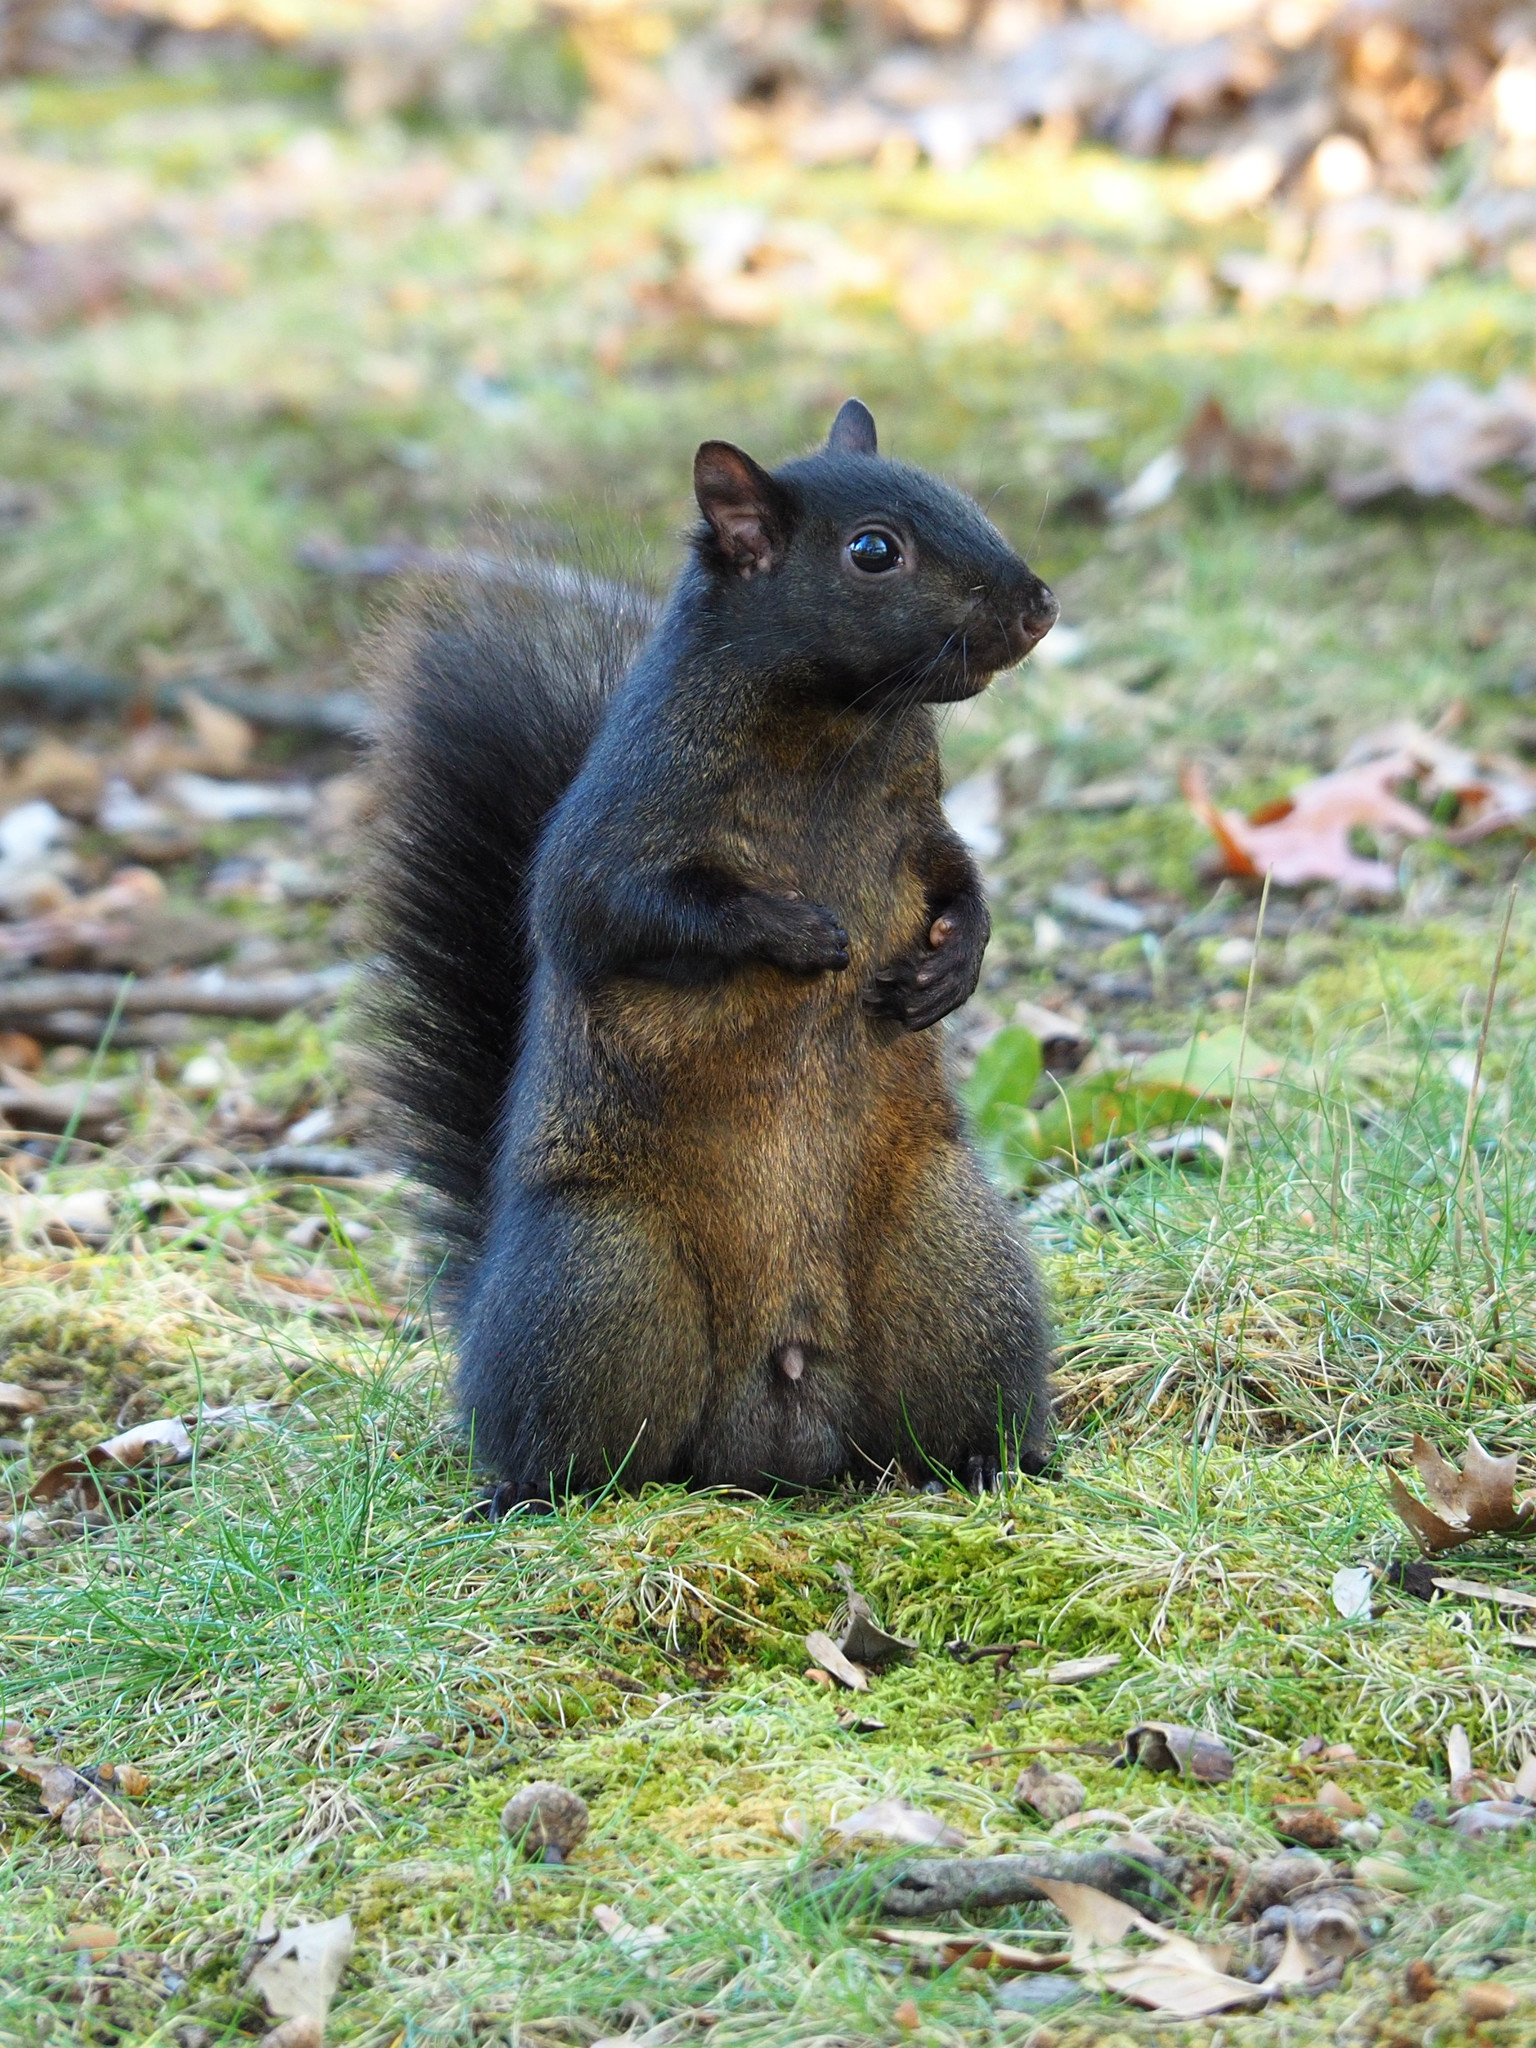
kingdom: Animalia
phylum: Chordata
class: Mammalia
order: Rodentia
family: Sciuridae
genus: Sciurus
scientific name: Sciurus carolinensis
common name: Eastern gray squirrel
